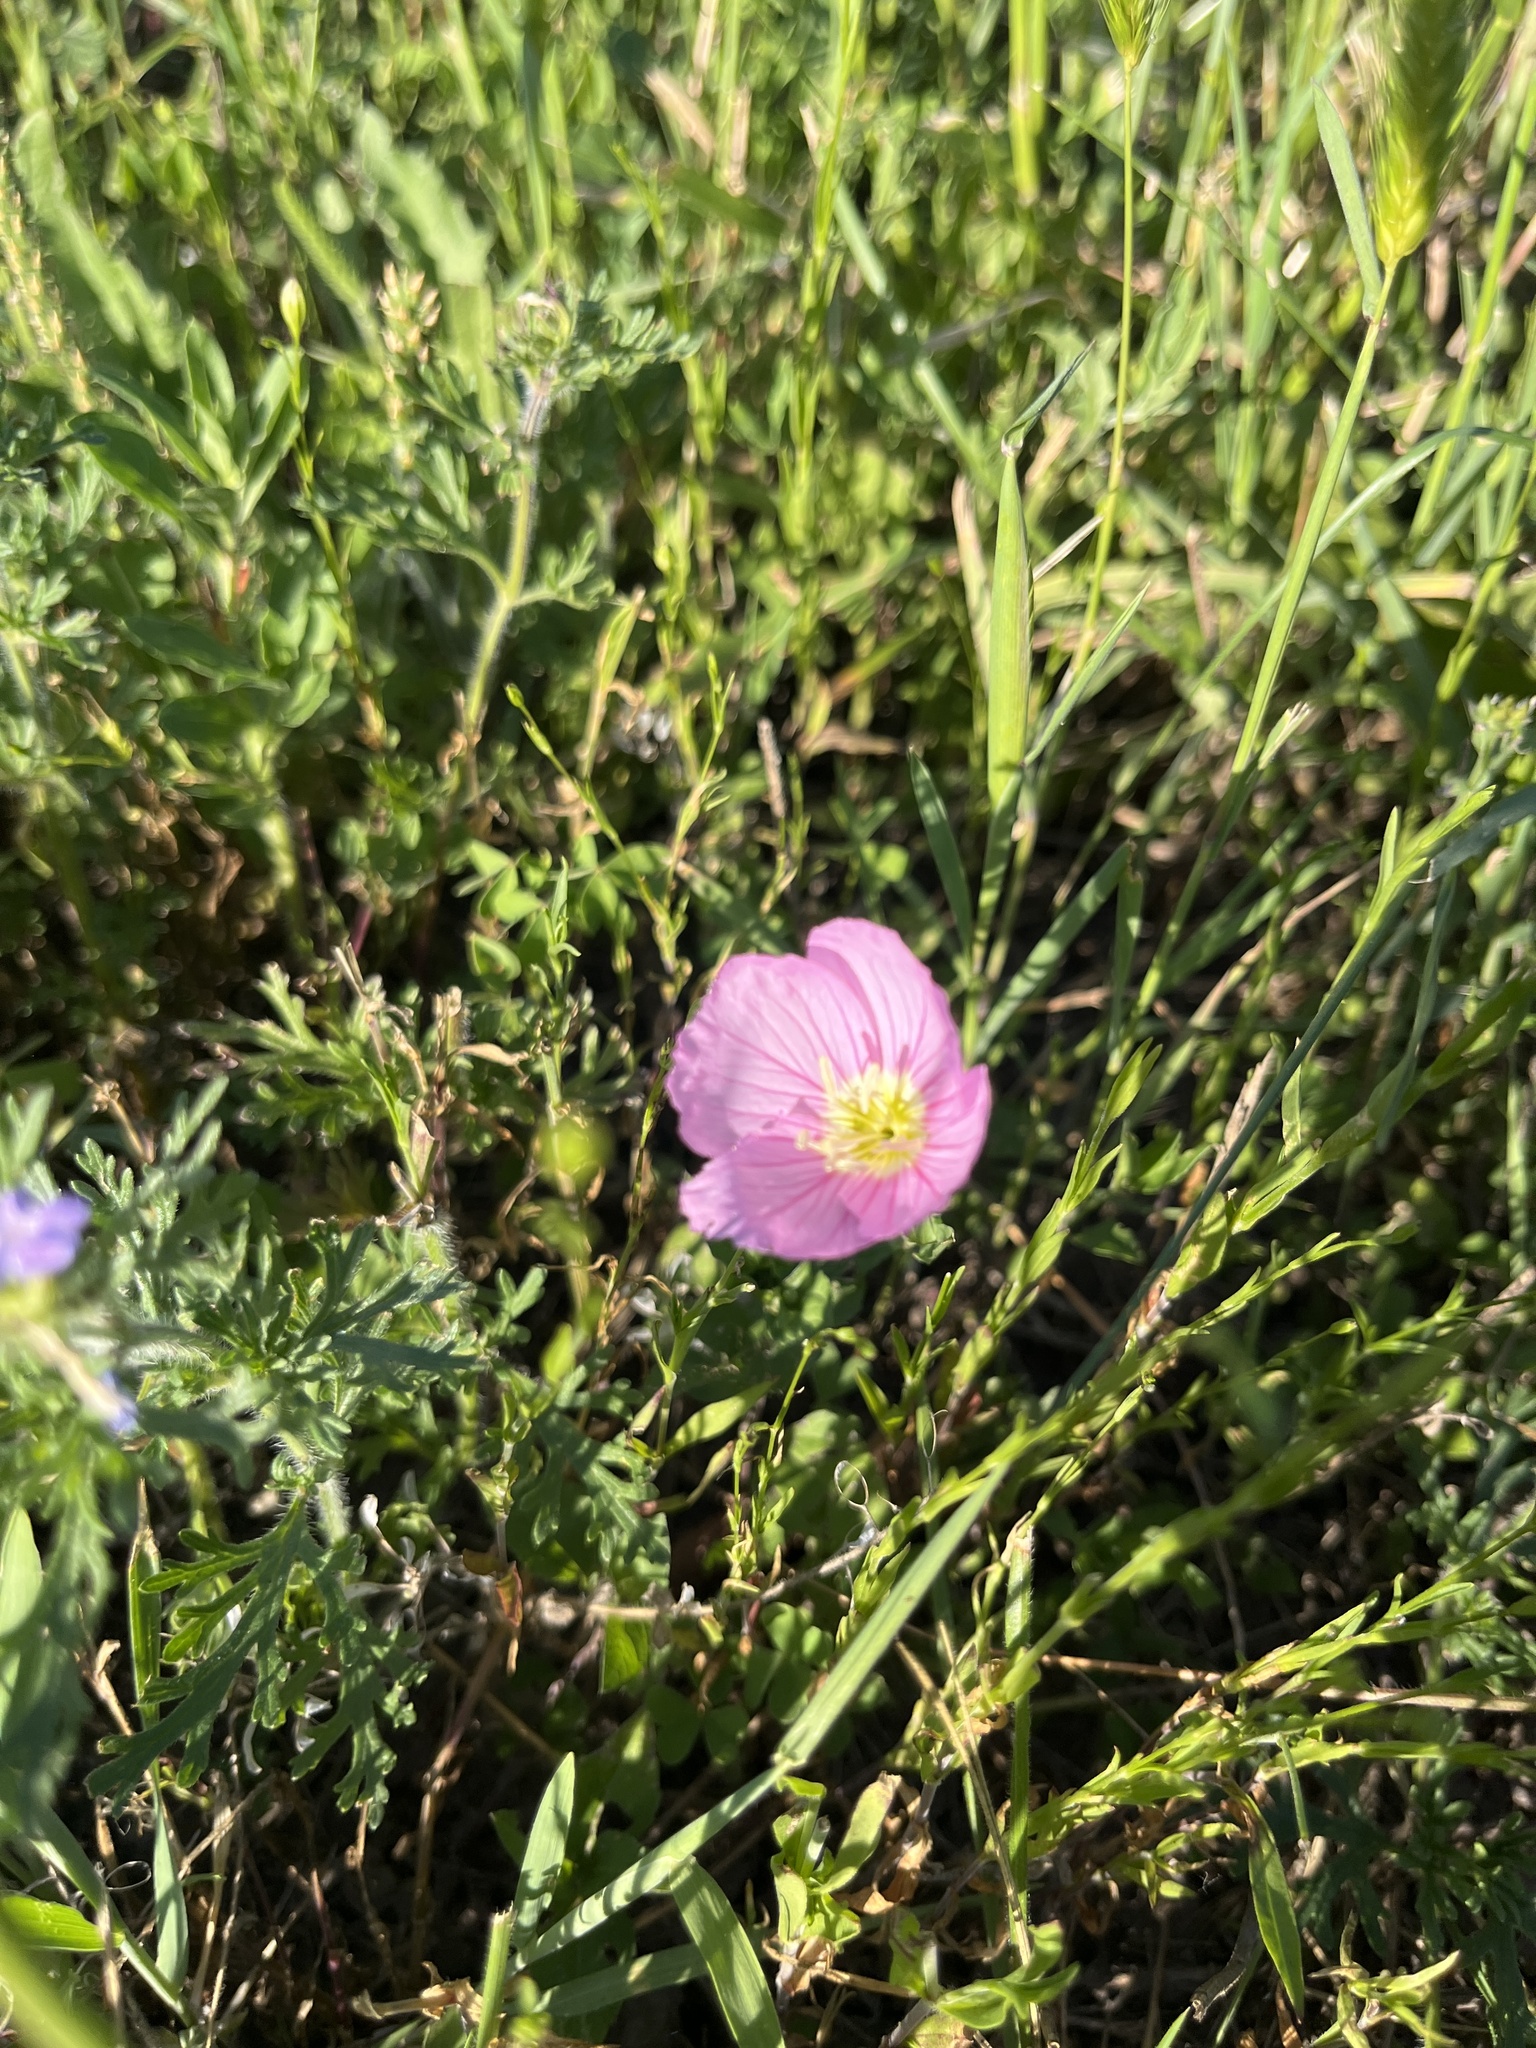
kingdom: Plantae
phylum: Tracheophyta
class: Magnoliopsida
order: Myrtales
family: Onagraceae
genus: Oenothera
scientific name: Oenothera speciosa
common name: White evening-primrose
